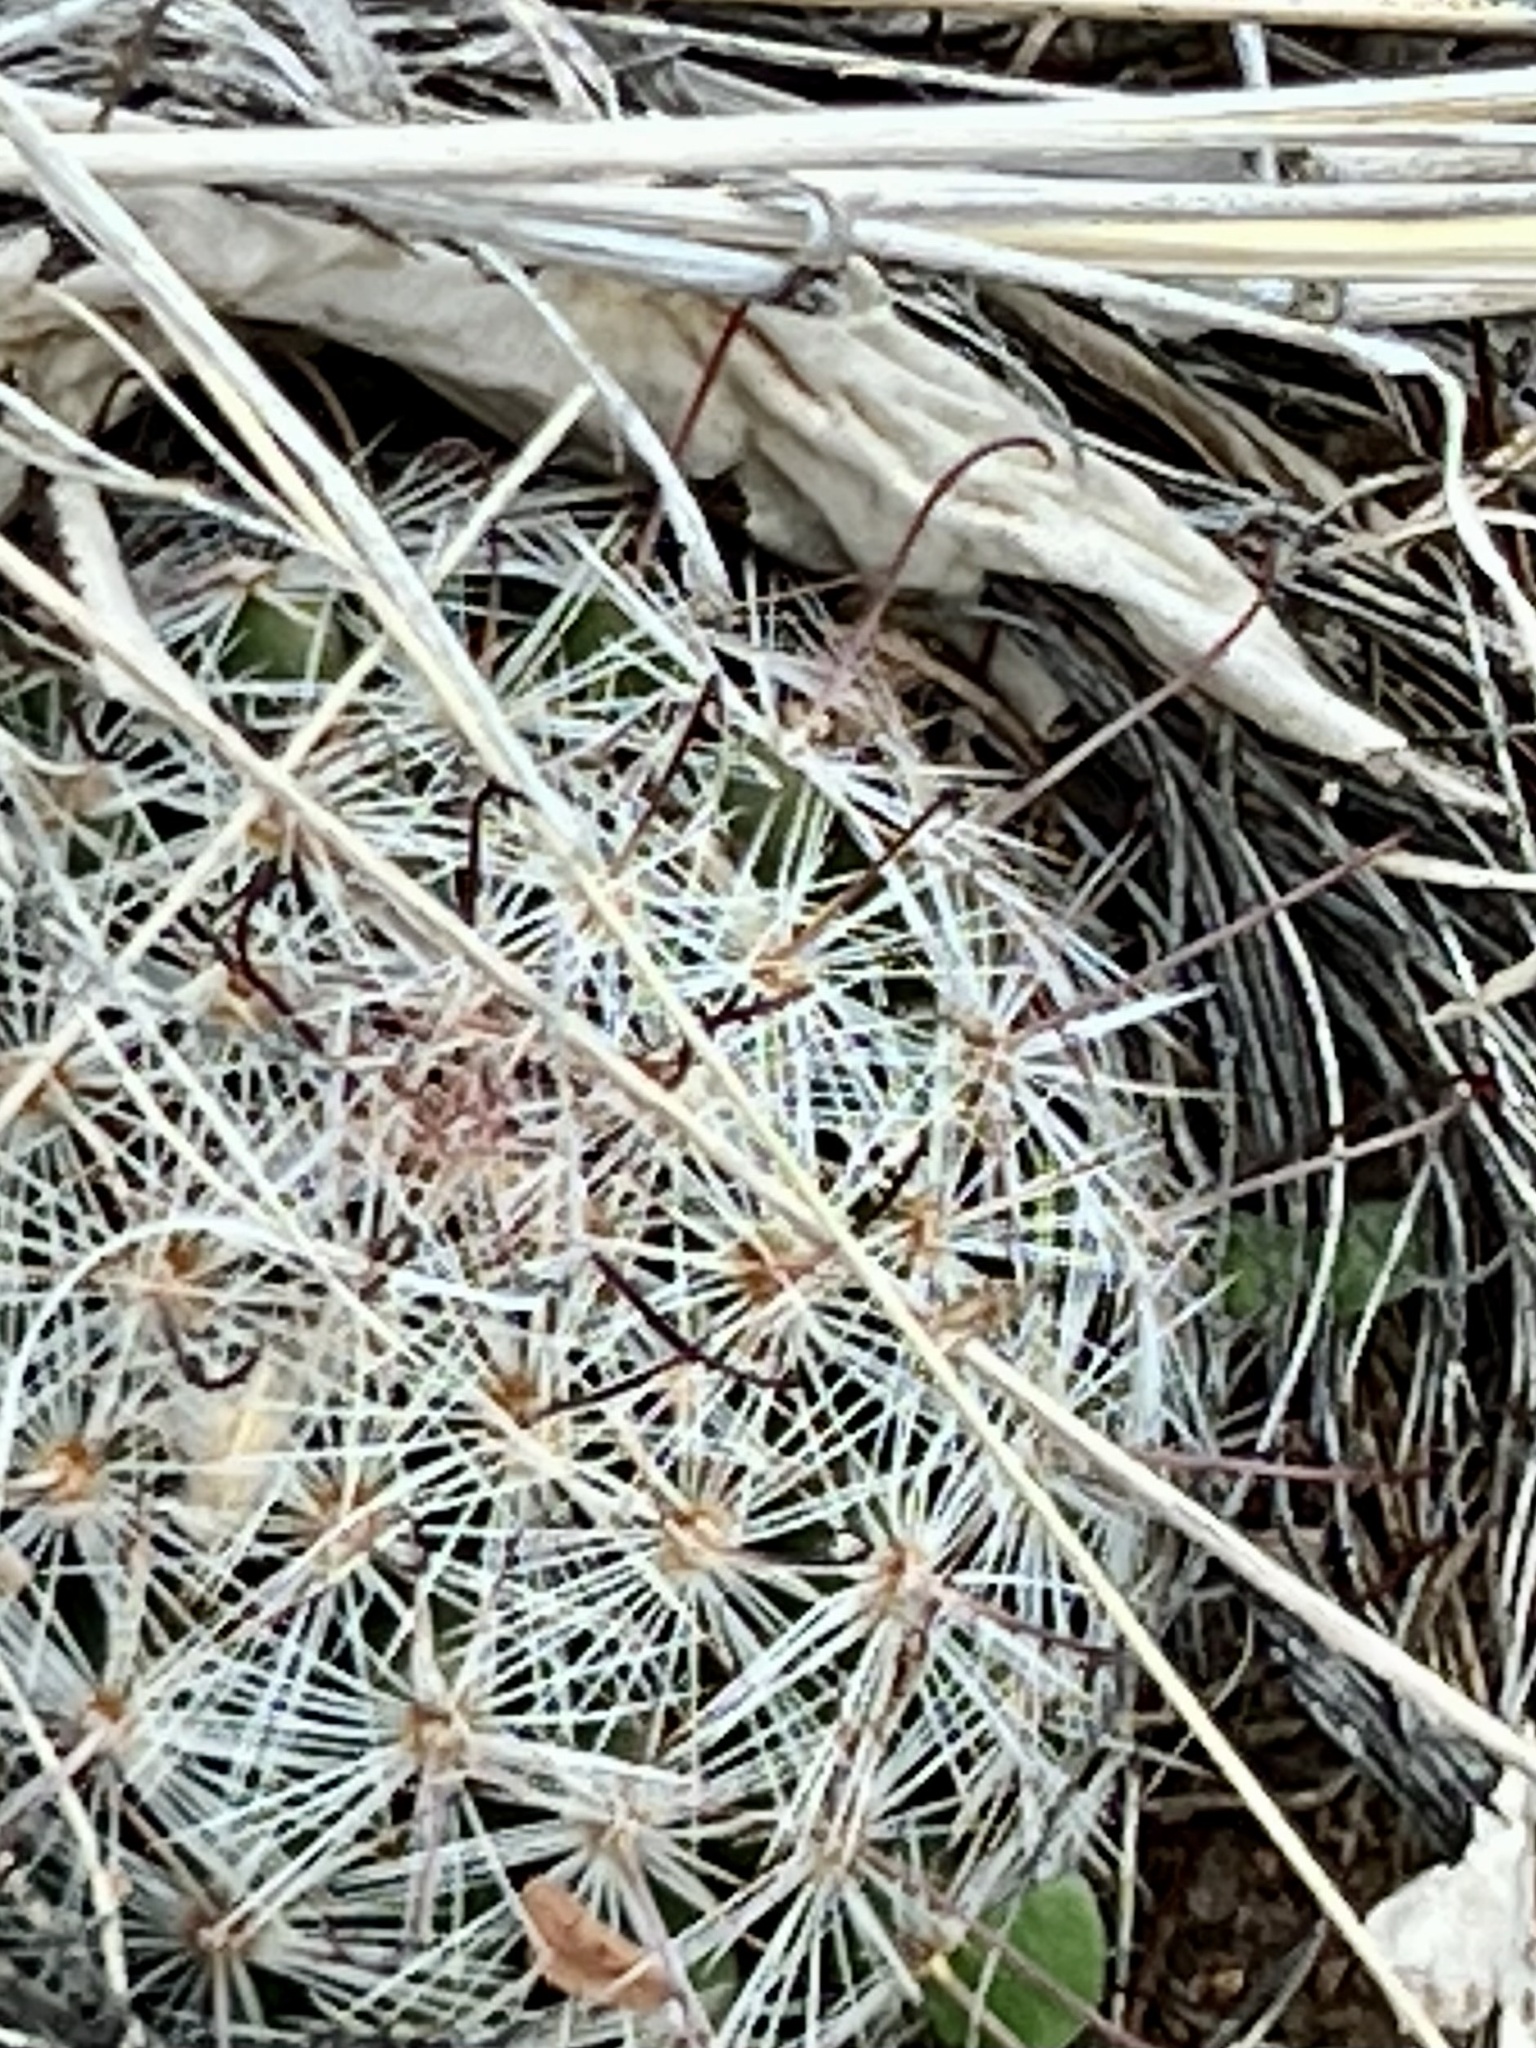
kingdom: Plantae
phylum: Tracheophyta
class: Magnoliopsida
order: Caryophyllales
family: Cactaceae
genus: Cochemiea
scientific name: Cochemiea grahamii
